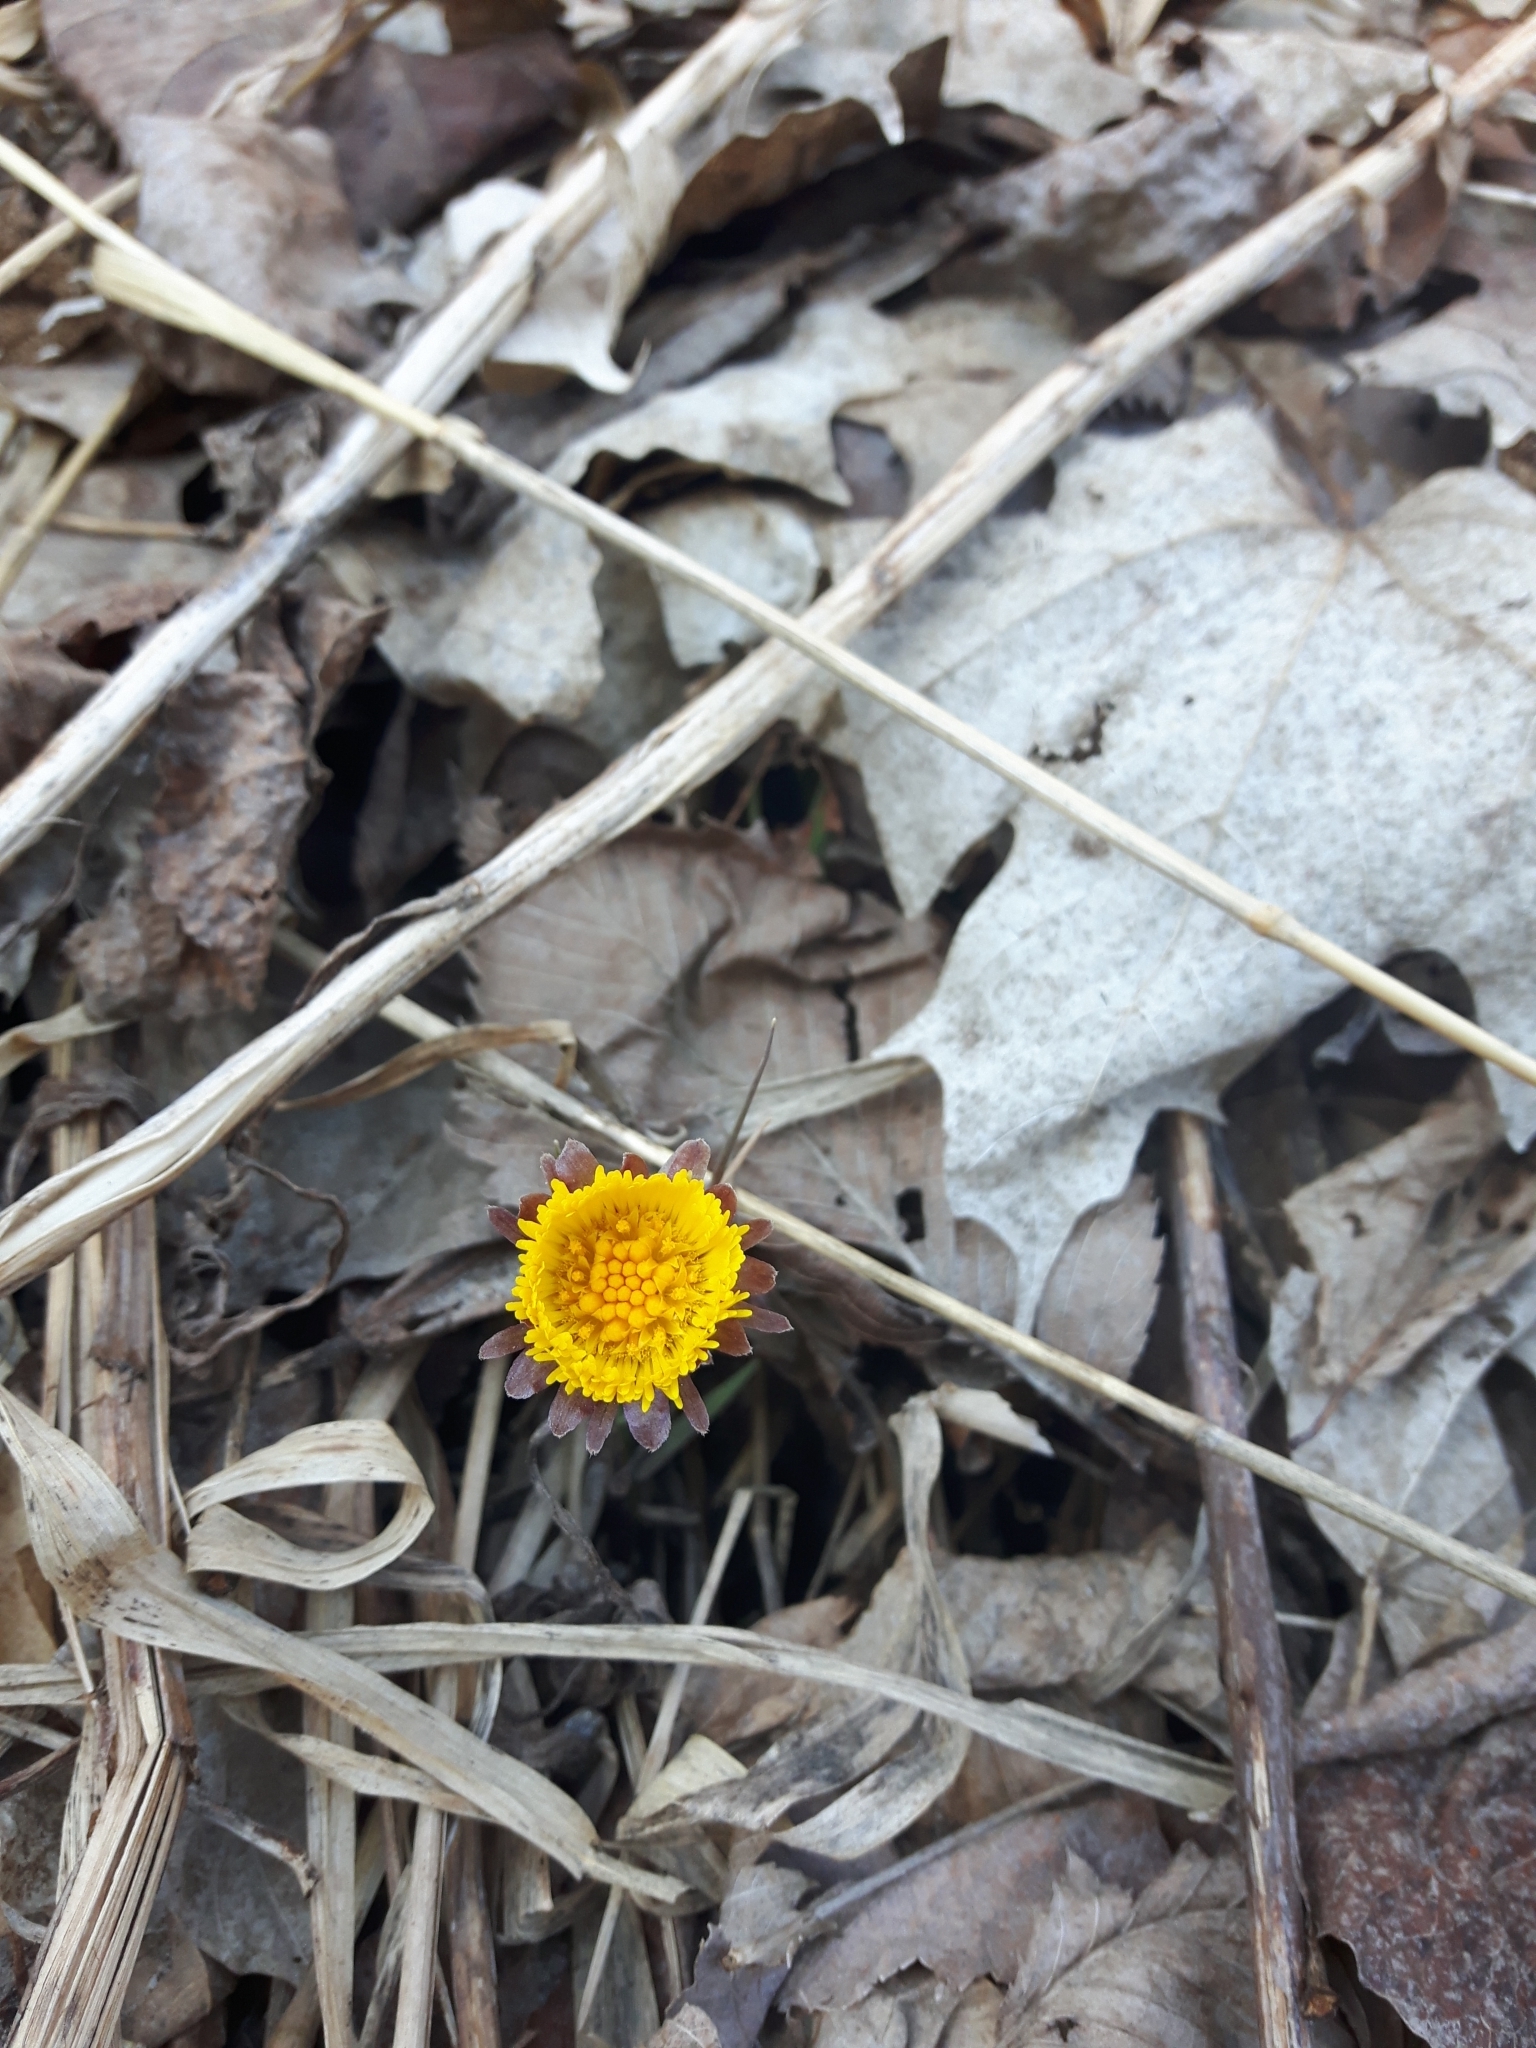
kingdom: Plantae
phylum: Tracheophyta
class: Magnoliopsida
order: Asterales
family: Asteraceae
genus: Tussilago
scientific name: Tussilago farfara
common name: Coltsfoot
